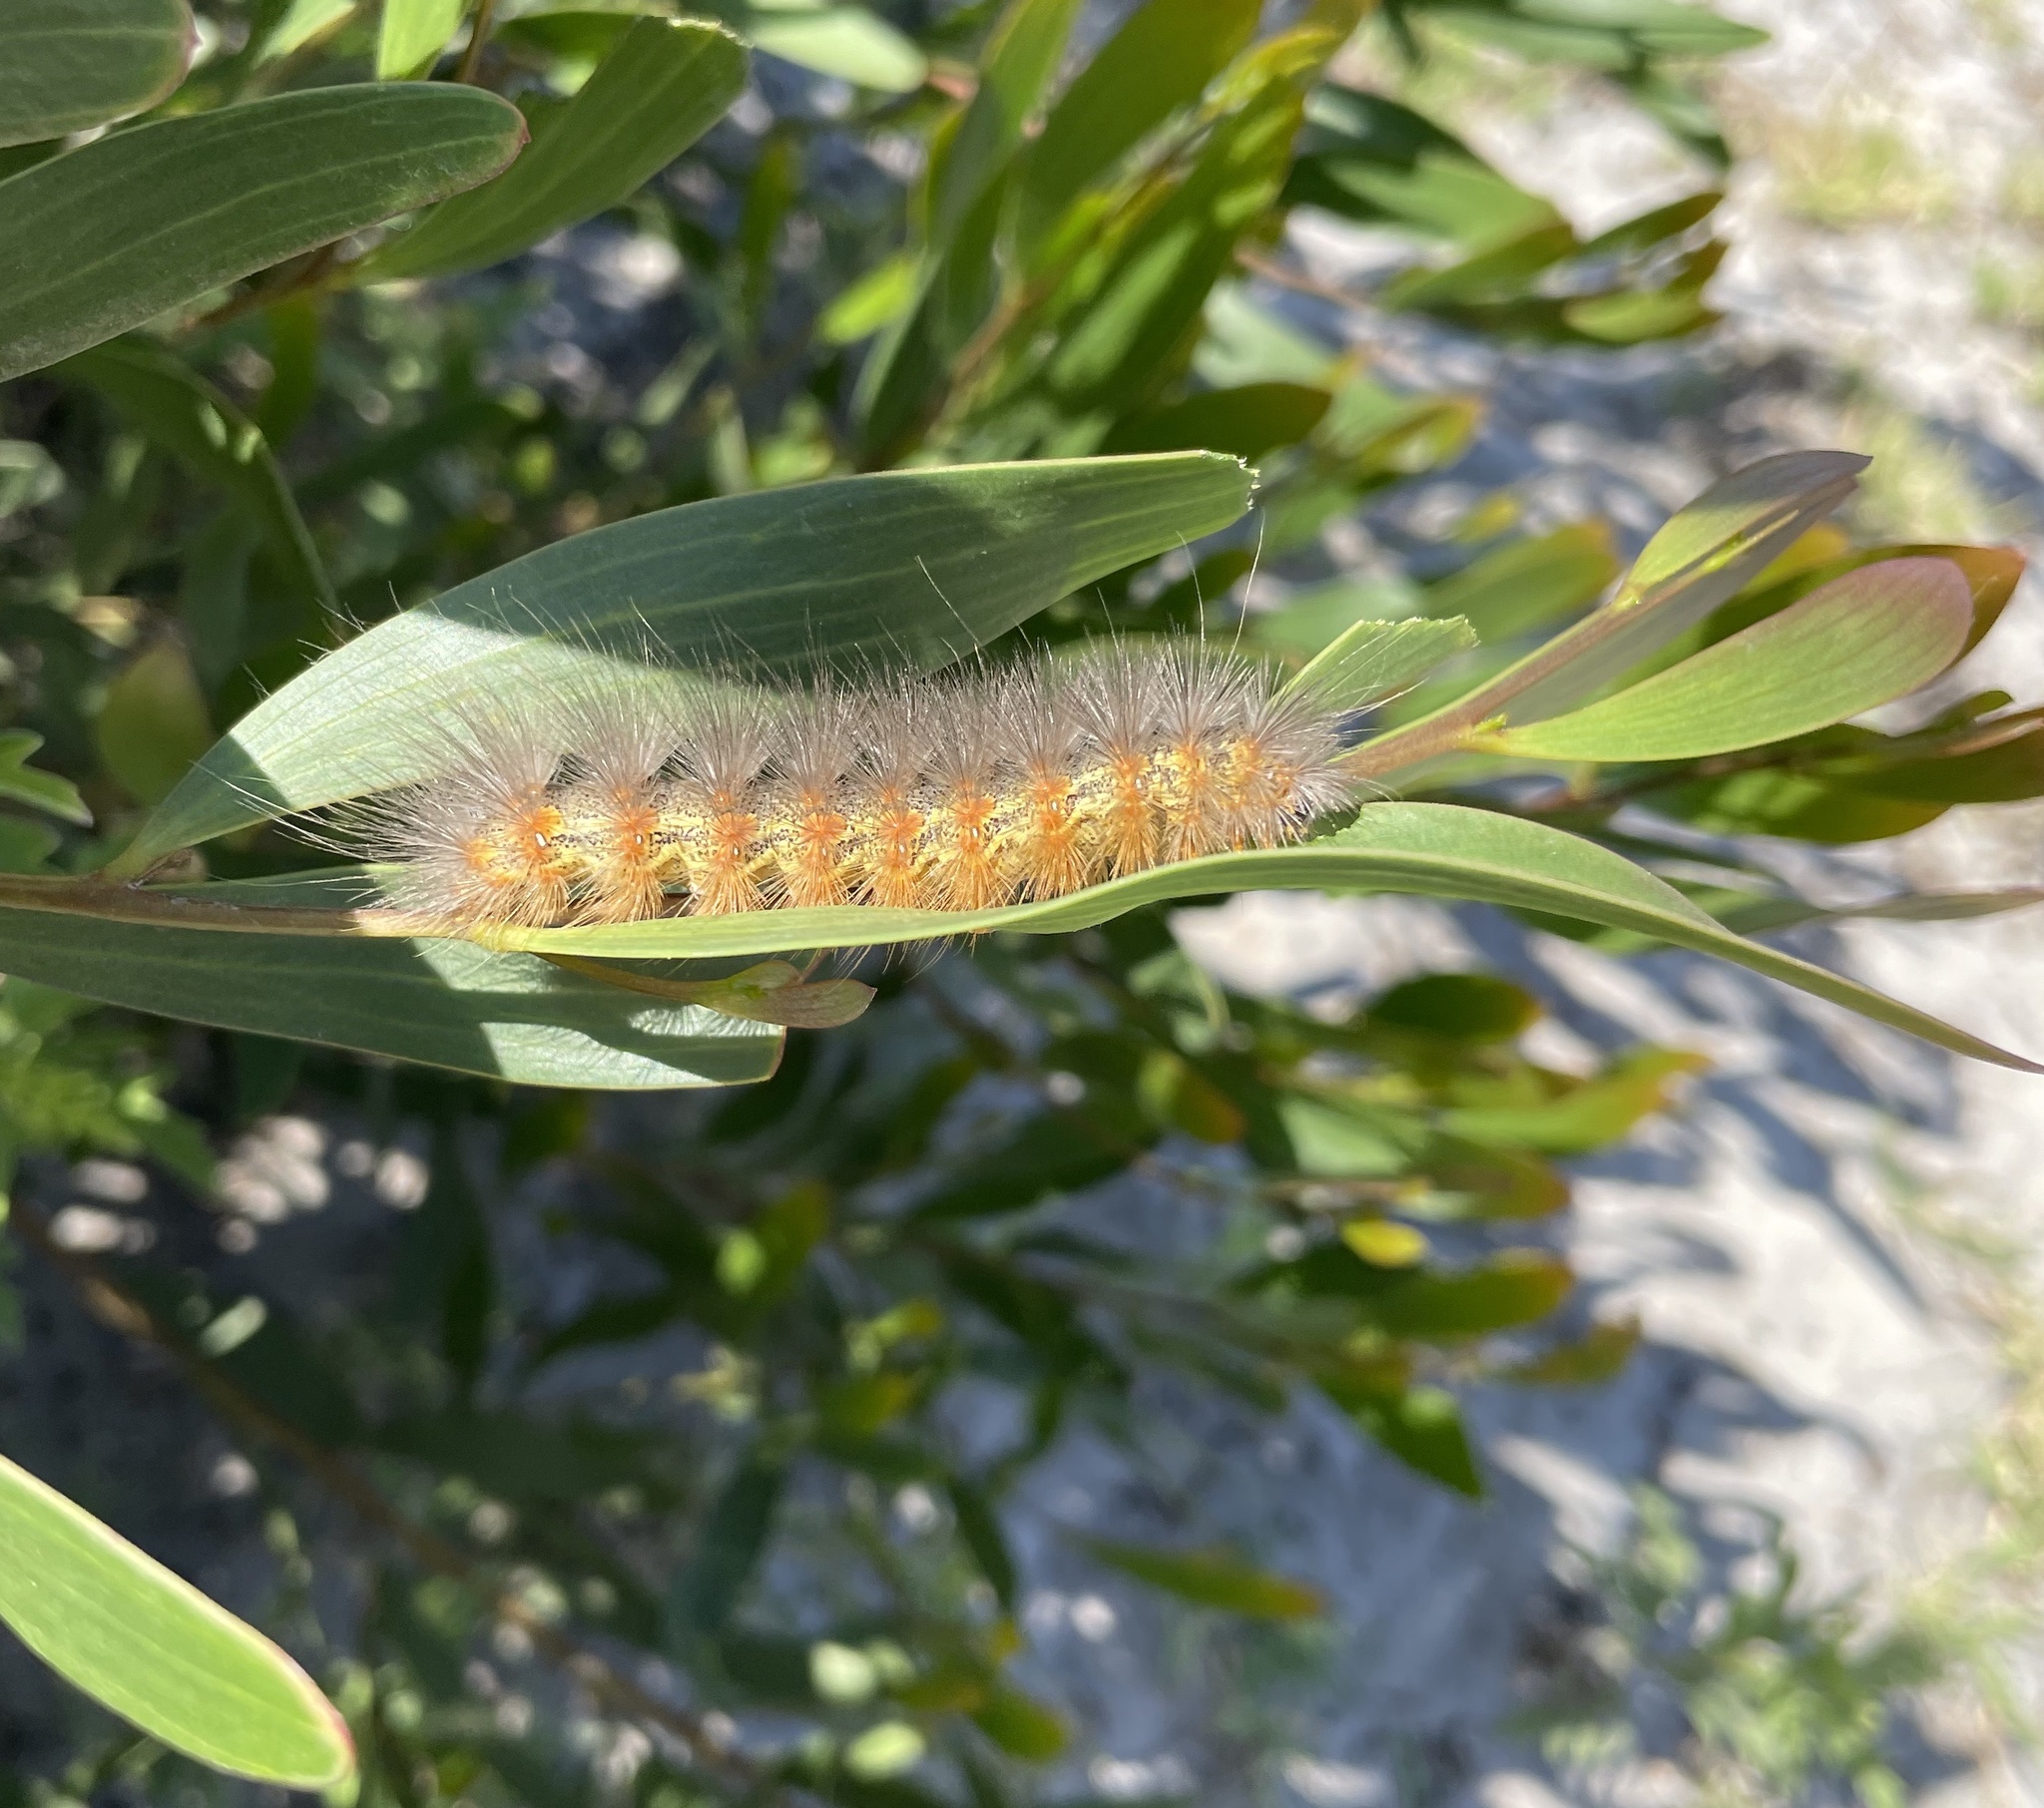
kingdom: Animalia
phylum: Arthropoda
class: Insecta
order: Lepidoptera
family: Erebidae
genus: Estigmene
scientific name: Estigmene acrea
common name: Salt marsh moth
